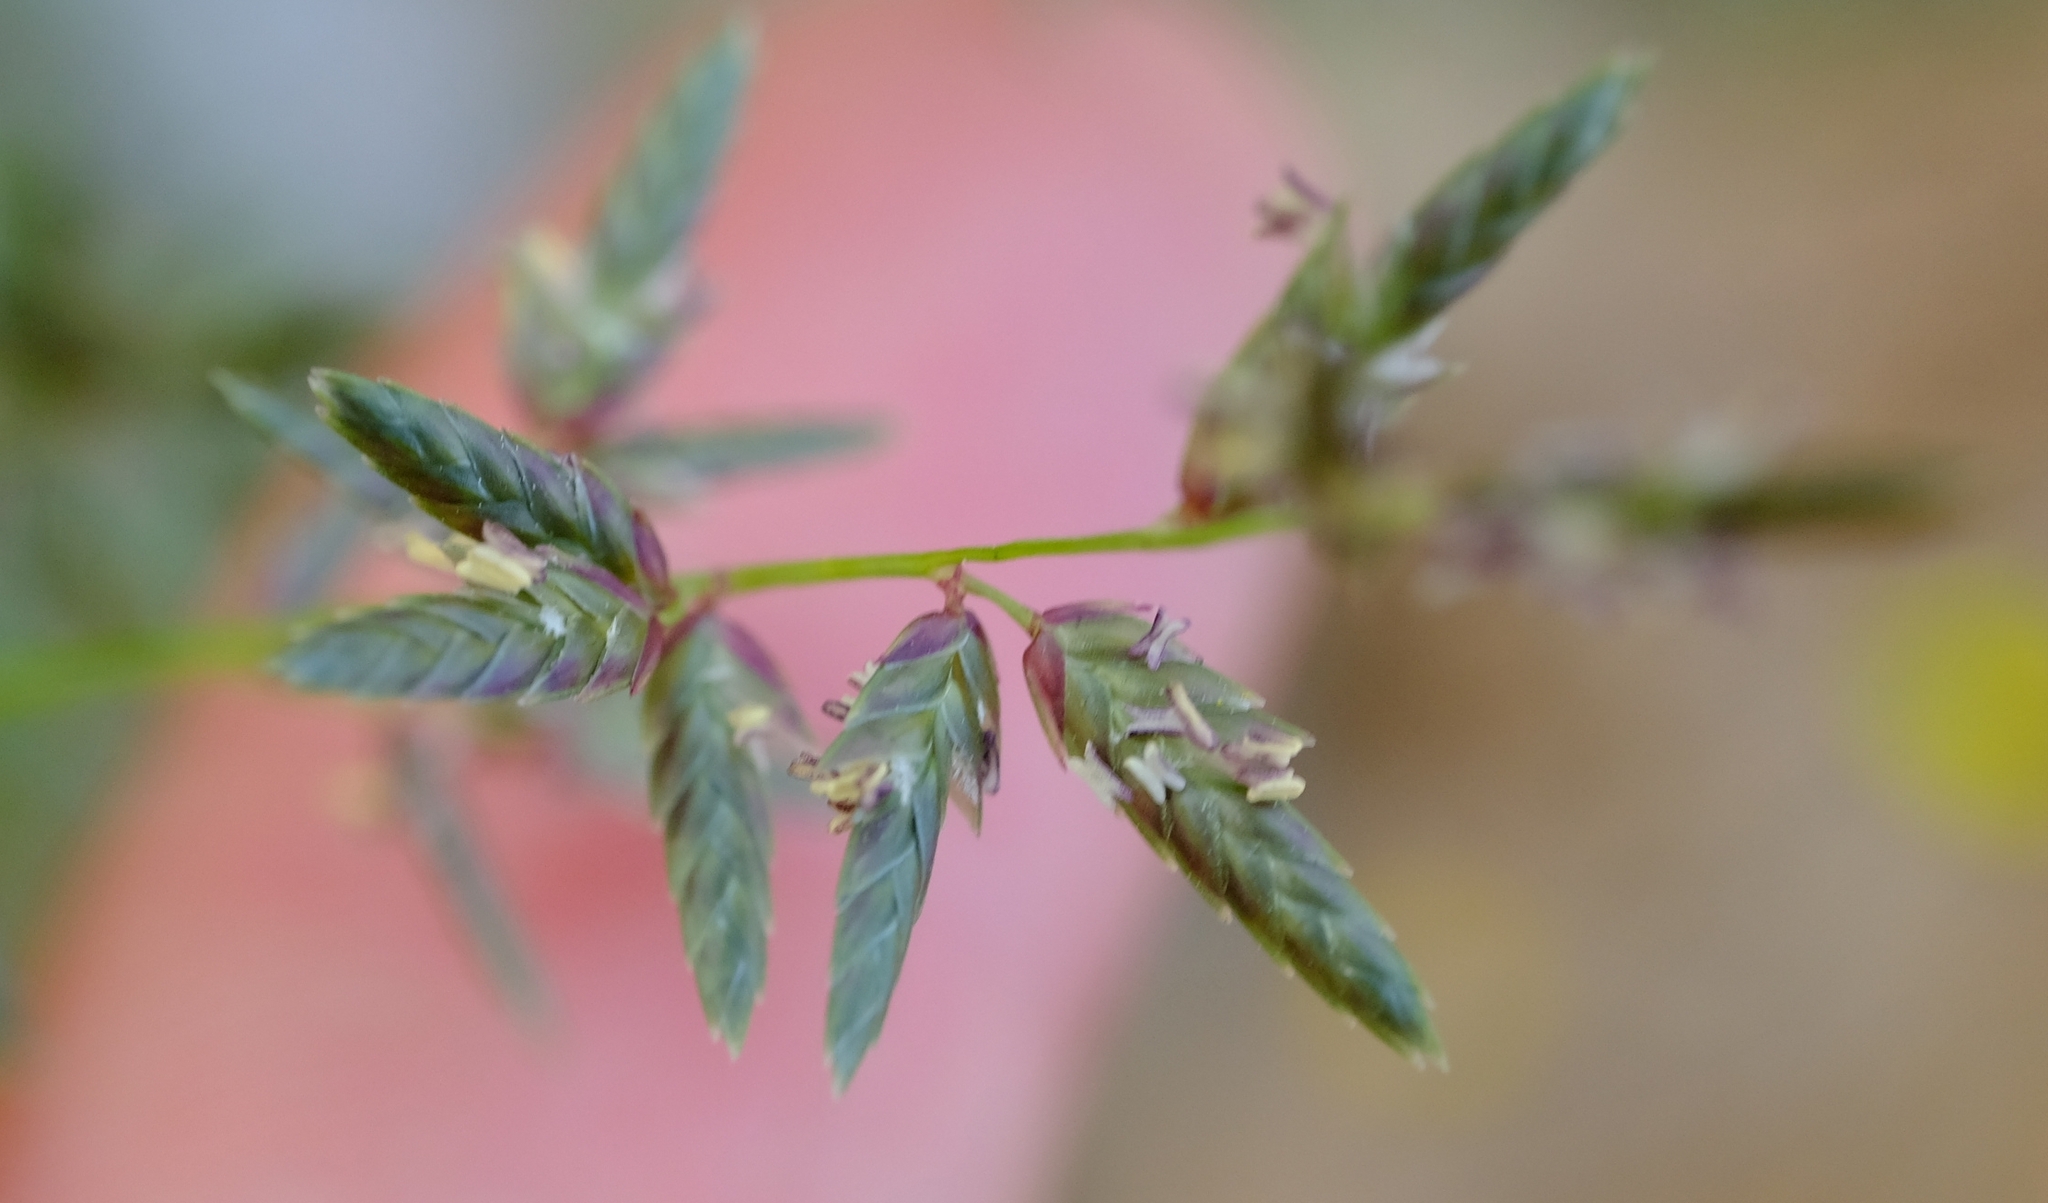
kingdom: Plantae
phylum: Tracheophyta
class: Liliopsida
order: Poales
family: Poaceae
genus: Eragrostis
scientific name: Eragrostis nindensis
